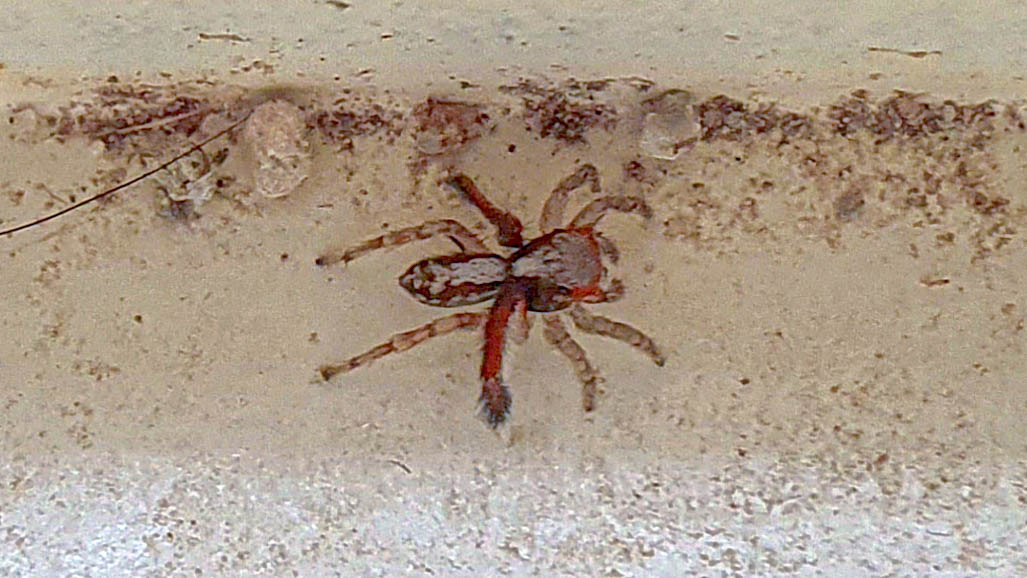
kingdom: Animalia
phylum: Arthropoda
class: Arachnida
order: Araneae
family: Salticidae
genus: Saitis
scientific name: Saitis barbipes
